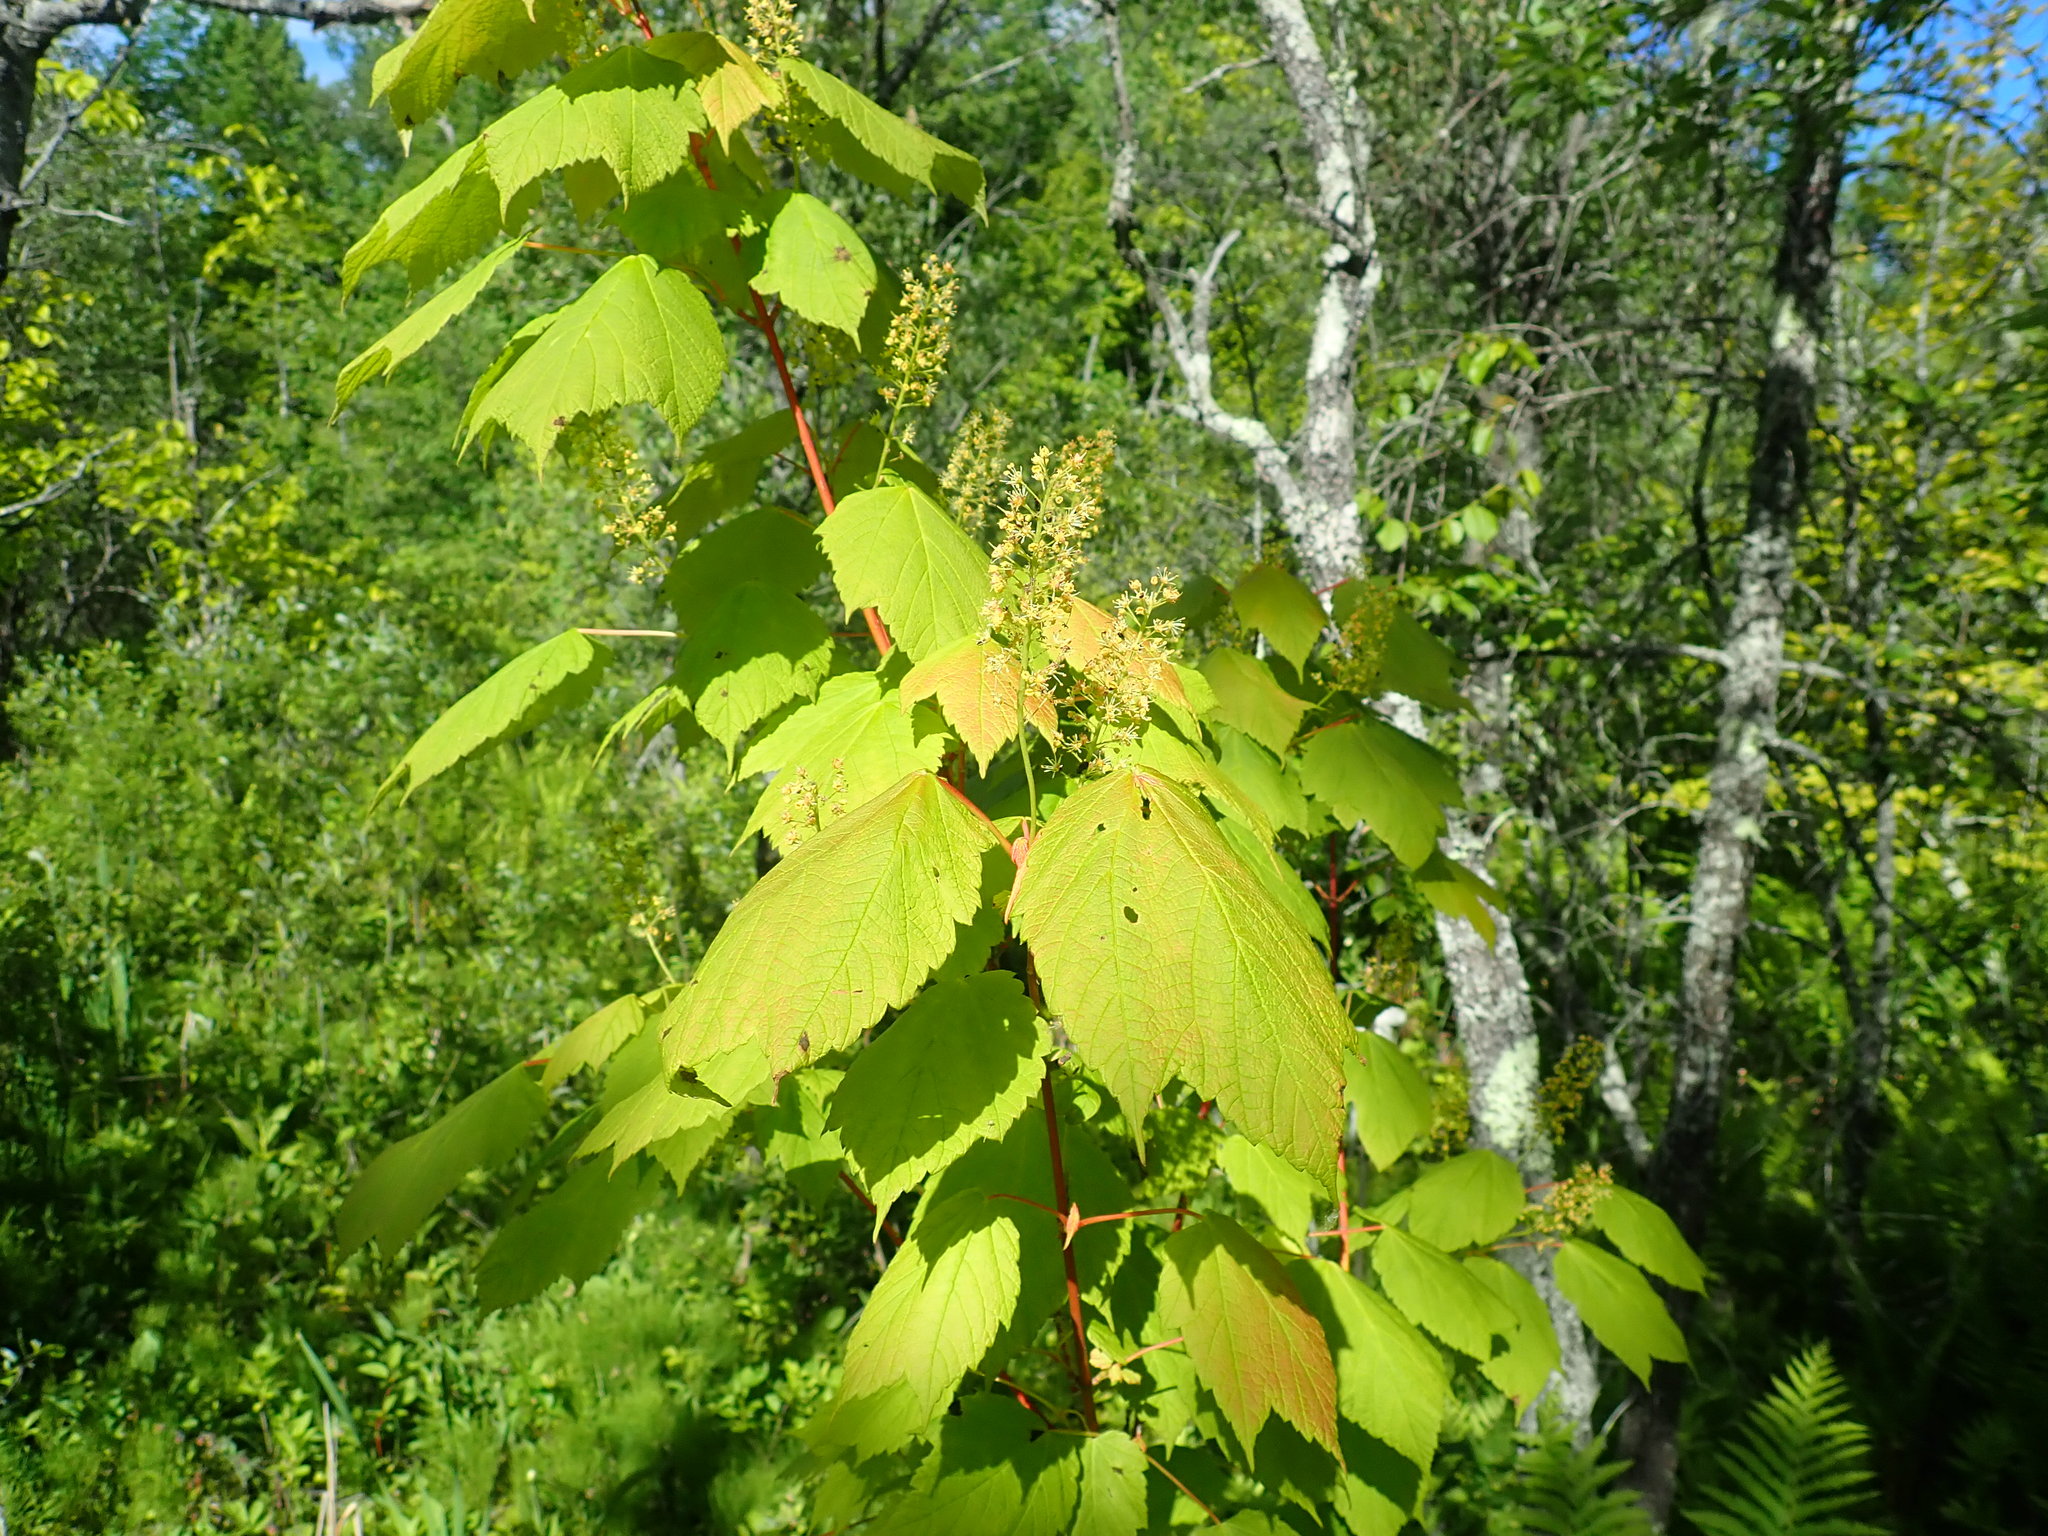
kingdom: Plantae
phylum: Tracheophyta
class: Magnoliopsida
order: Sapindales
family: Sapindaceae
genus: Acer
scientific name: Acer spicatum
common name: Mountain maple
